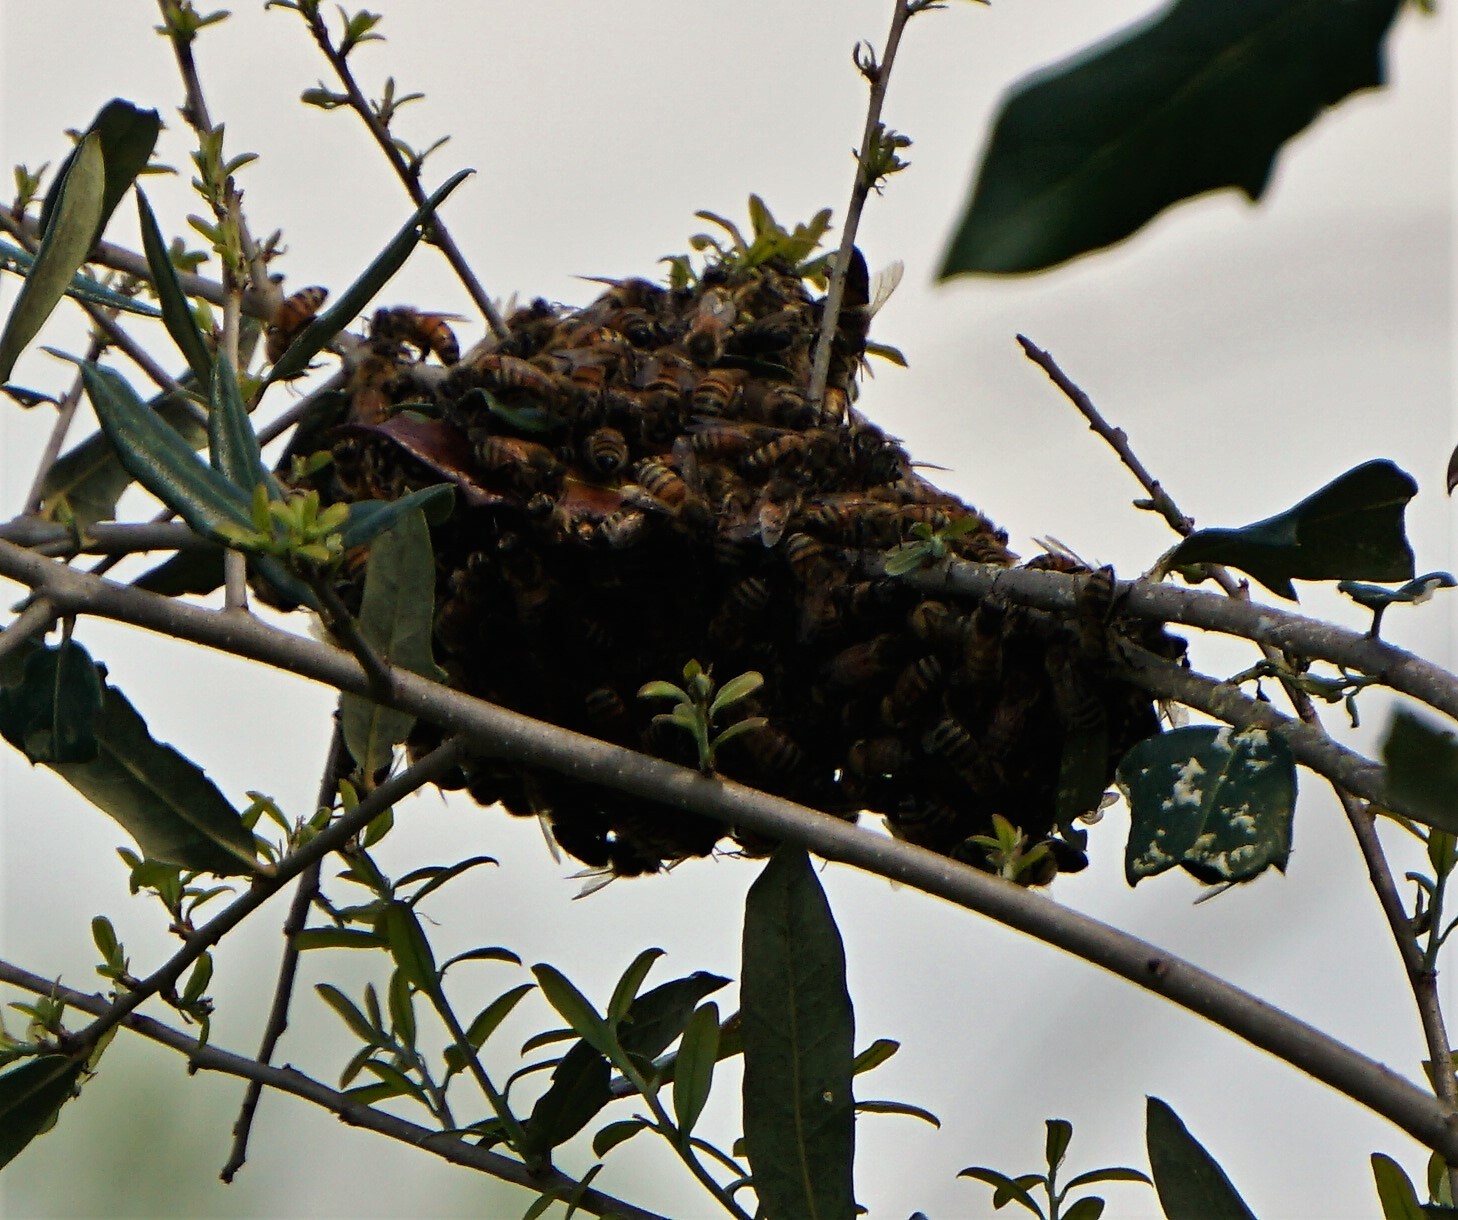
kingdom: Animalia
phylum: Arthropoda
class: Insecta
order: Hymenoptera
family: Apidae
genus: Apis
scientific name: Apis mellifera
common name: Honey bee
